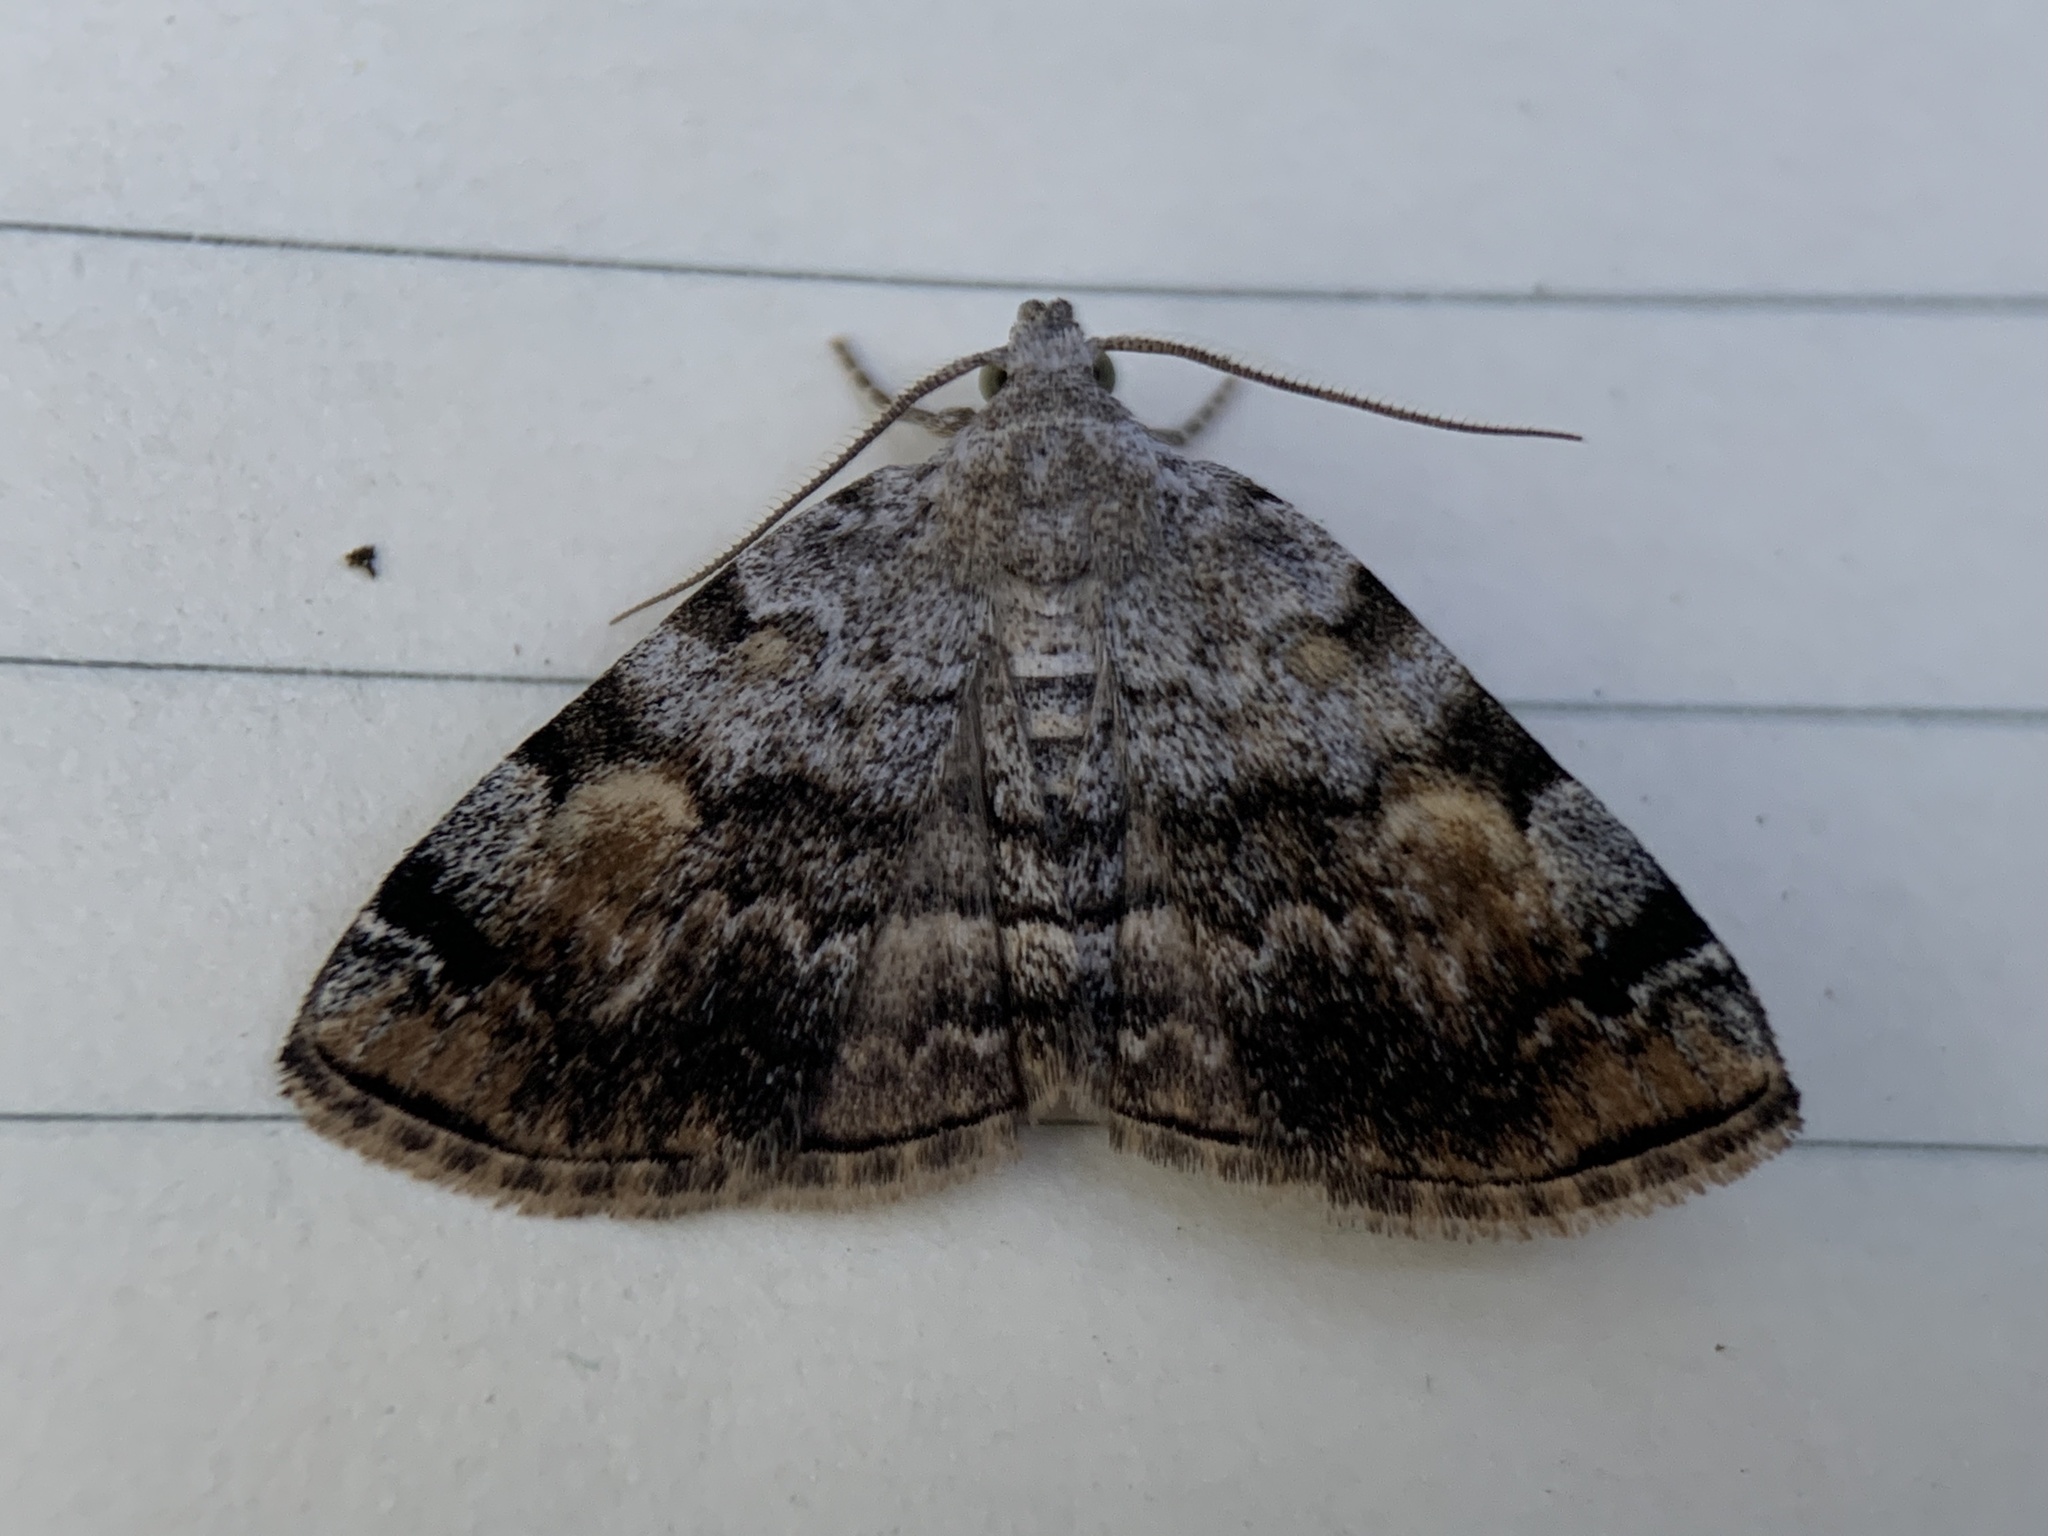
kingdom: Animalia
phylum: Arthropoda
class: Insecta
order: Lepidoptera
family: Erebidae
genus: Idia
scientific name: Idia americalis
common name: American idia moth
